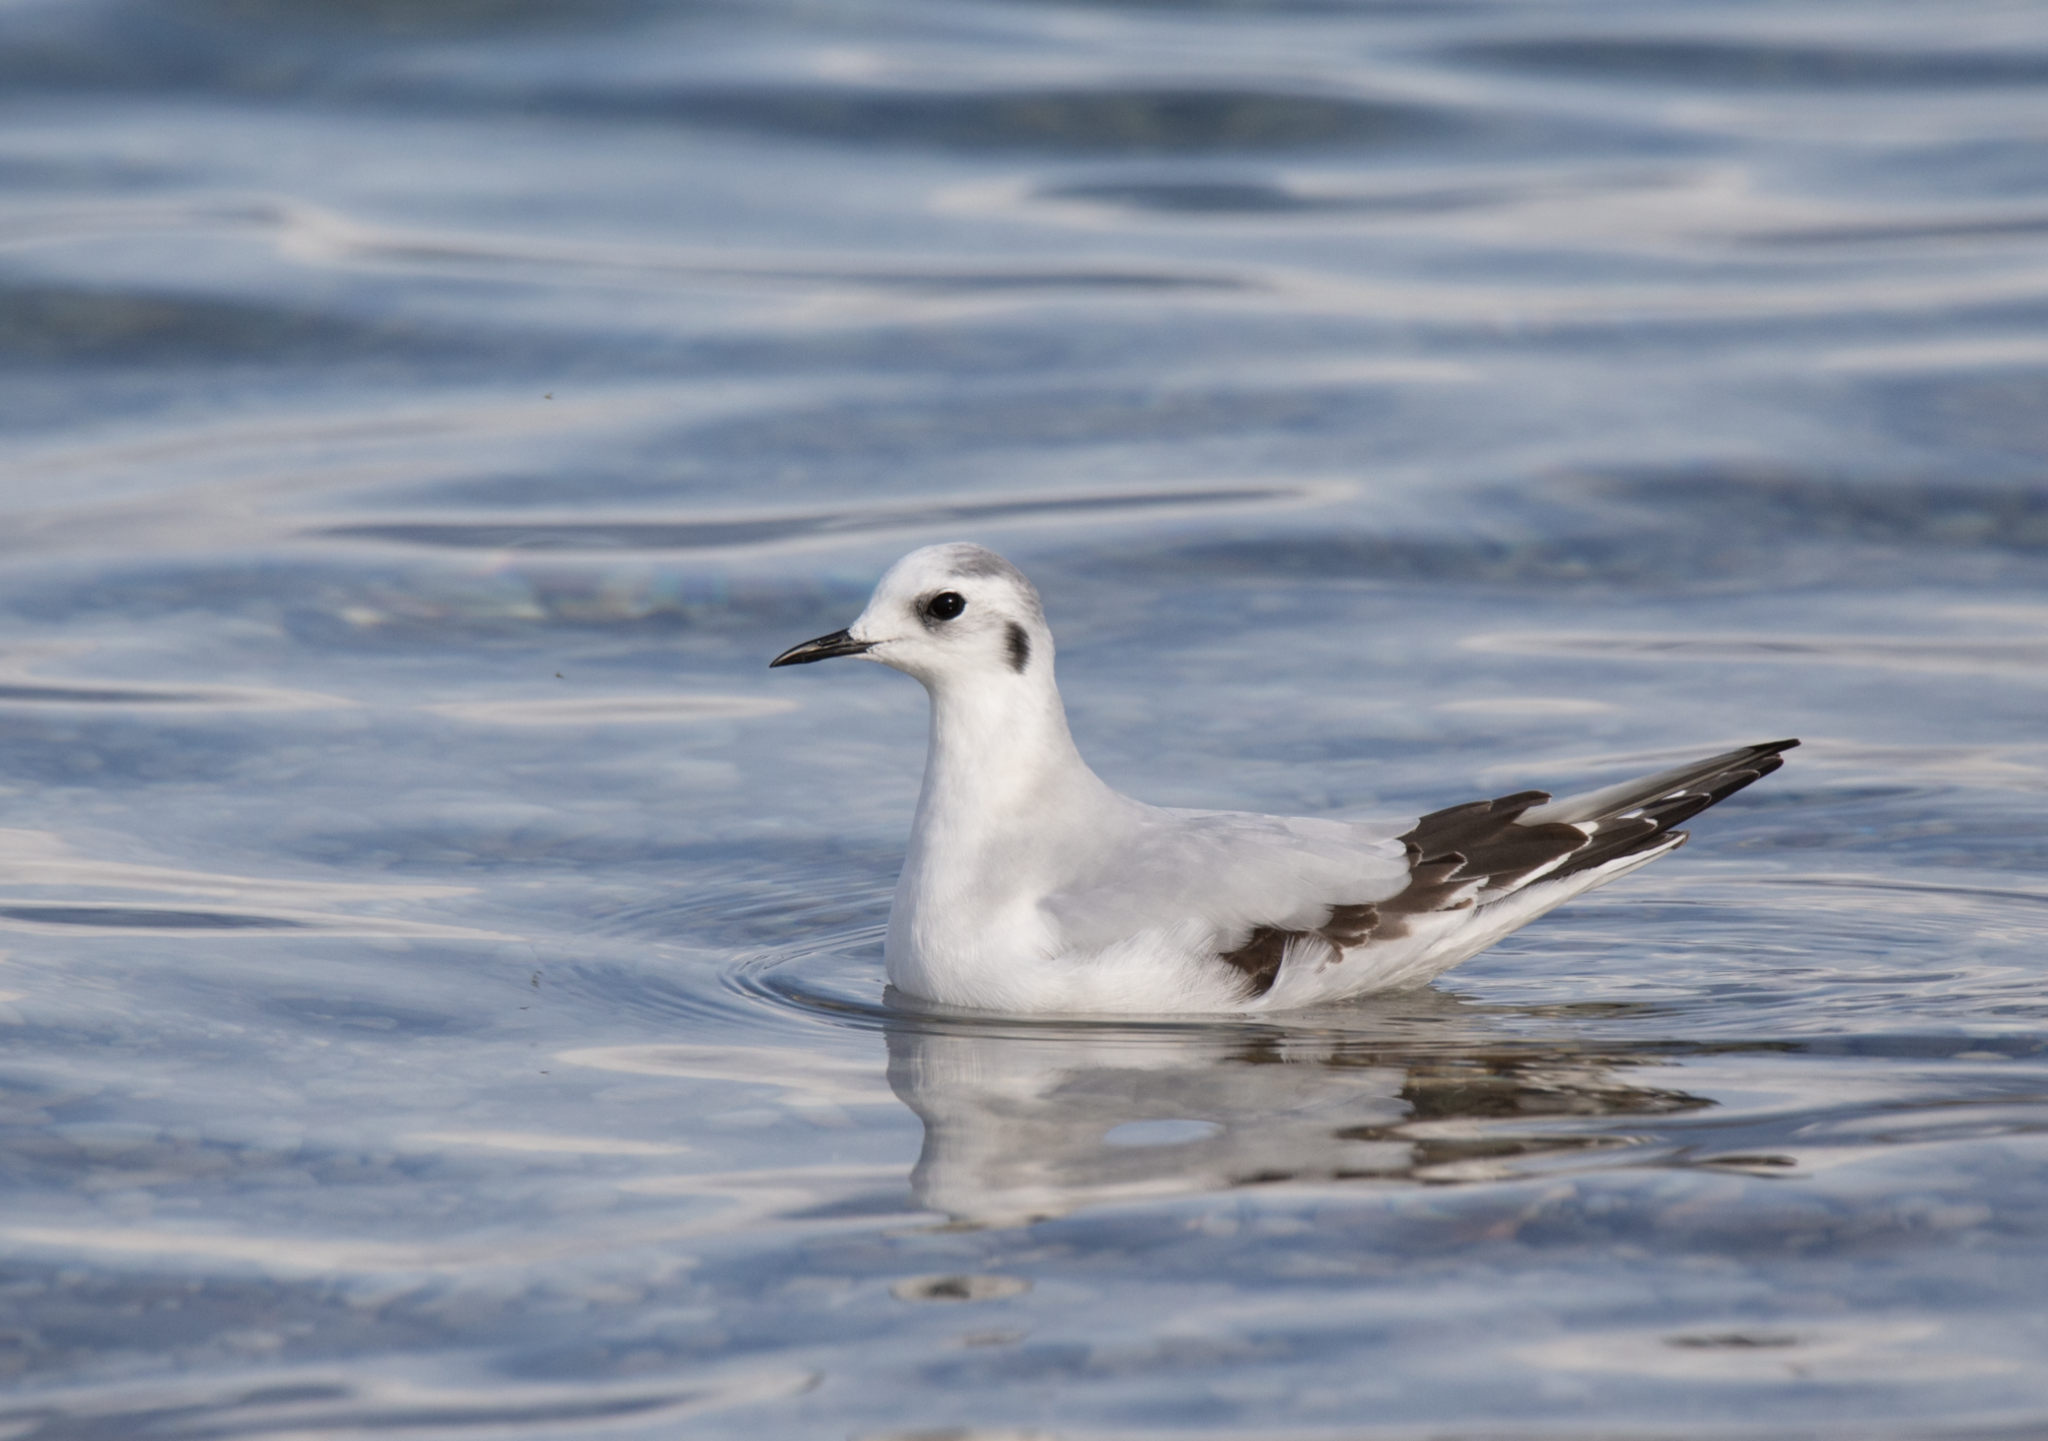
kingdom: Animalia
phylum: Chordata
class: Aves
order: Charadriiformes
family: Laridae
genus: Hydrocoloeus
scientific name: Hydrocoloeus minutus
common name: Little gull
